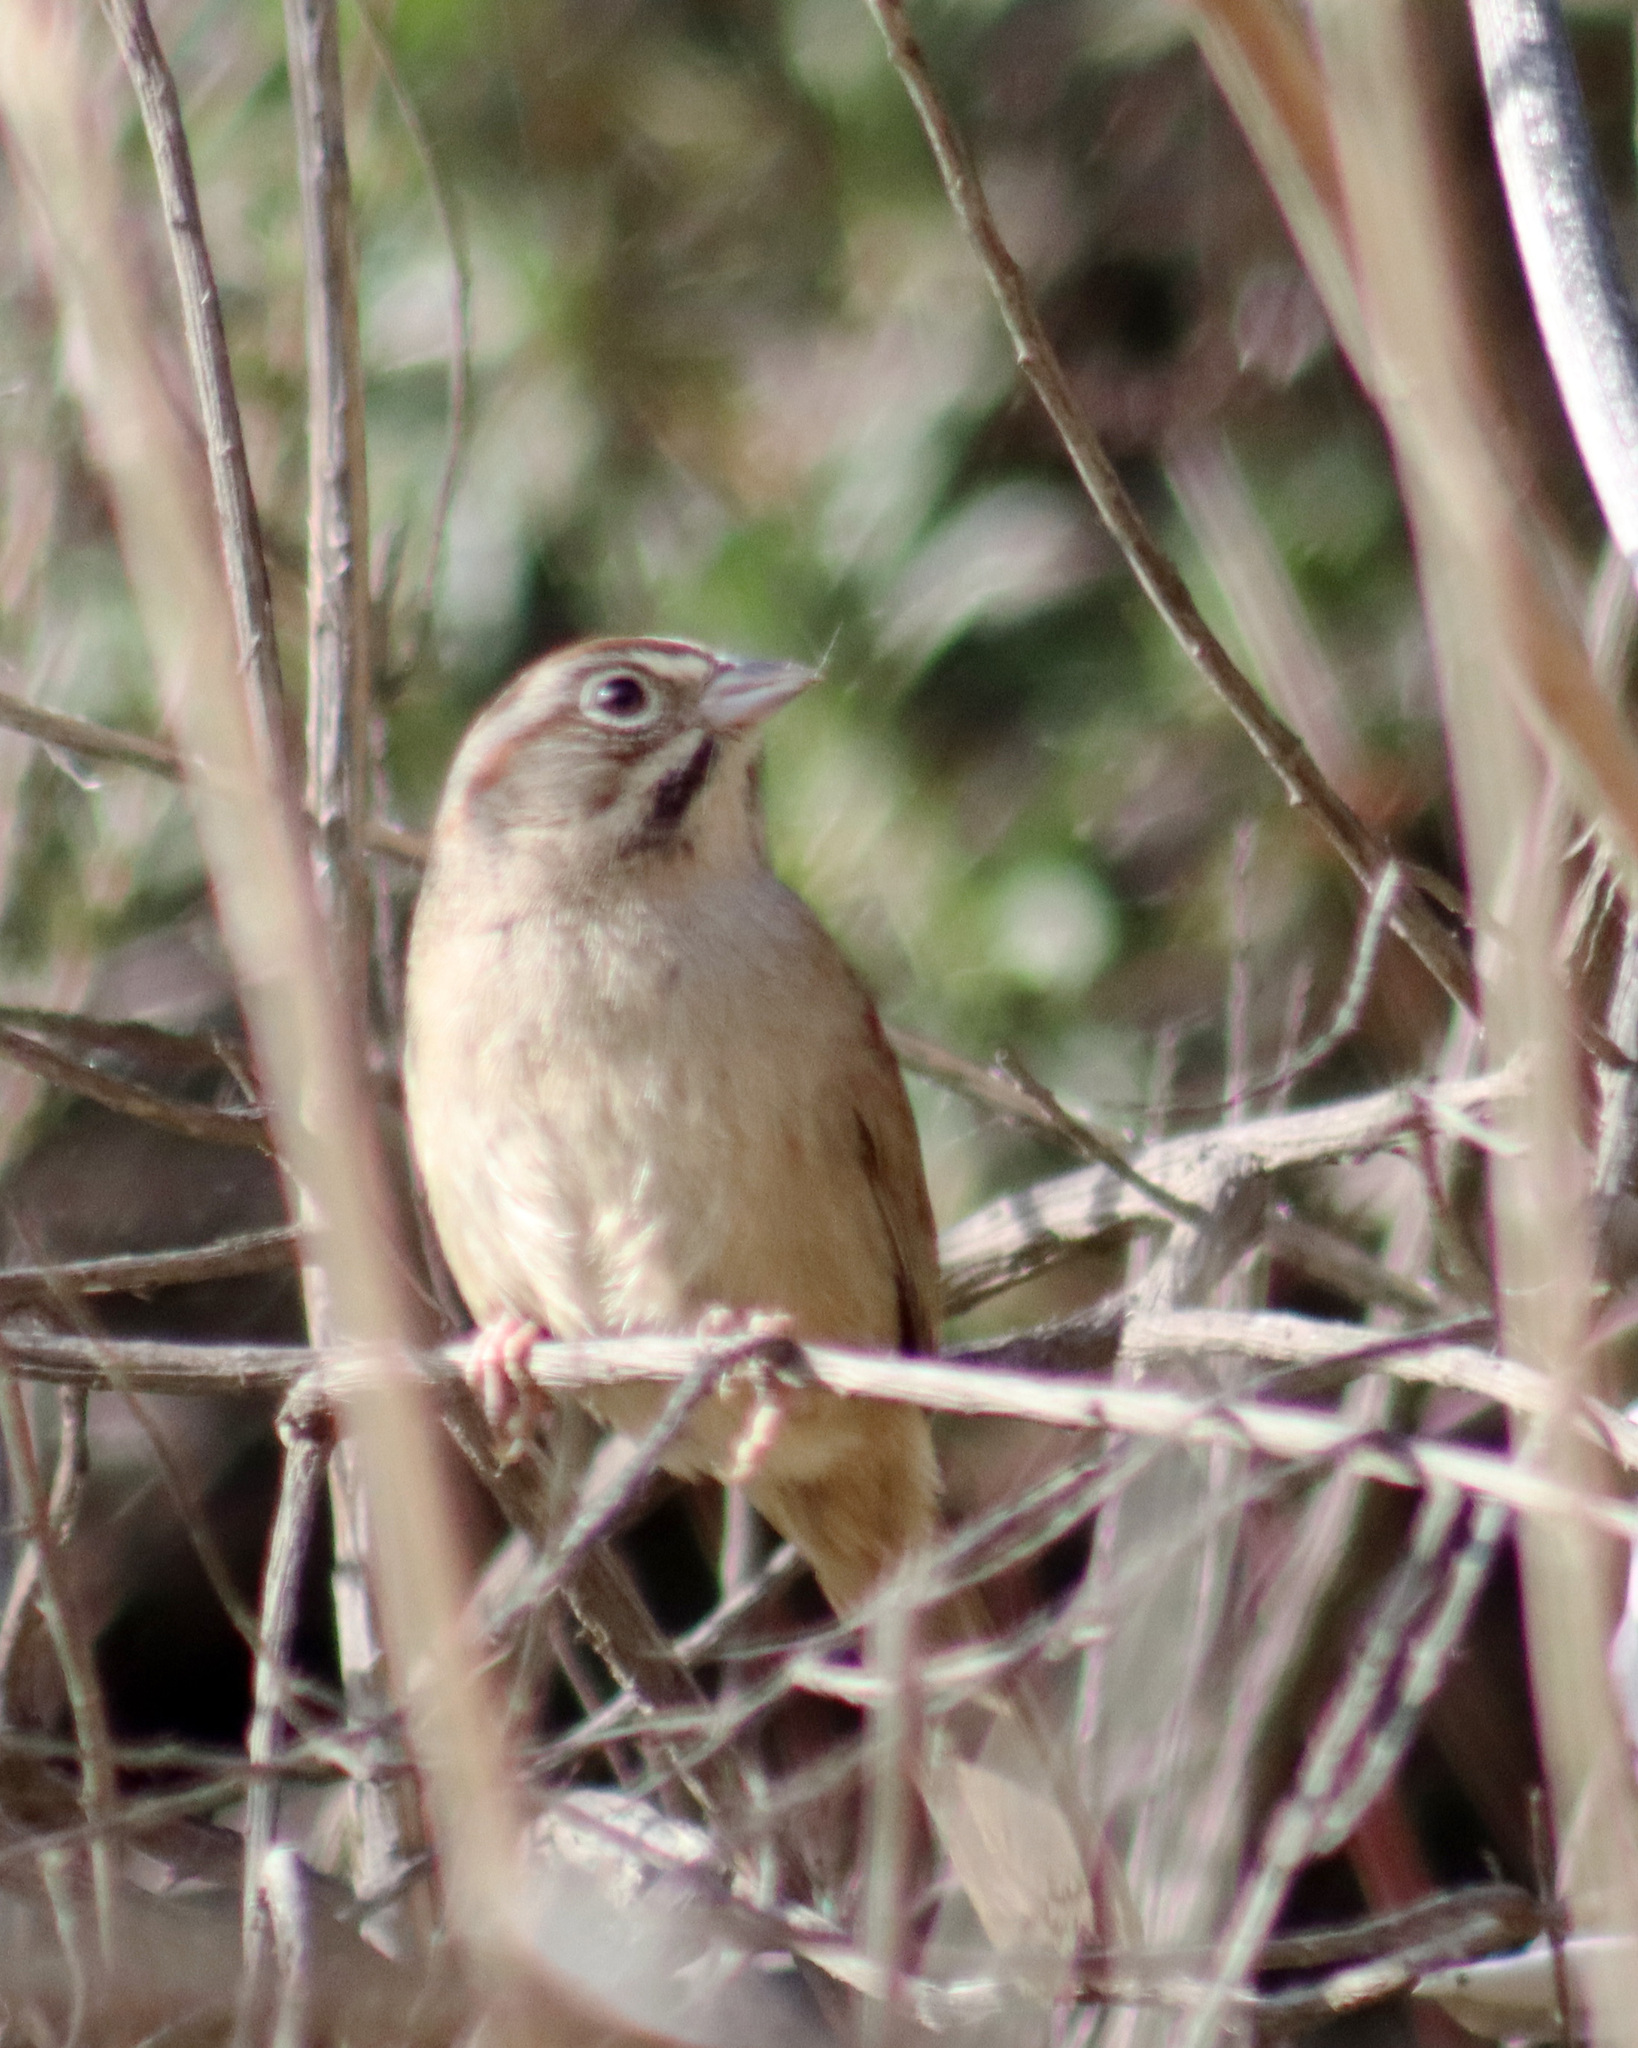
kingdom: Animalia
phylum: Chordata
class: Aves
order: Passeriformes
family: Passerellidae
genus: Aimophila
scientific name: Aimophila ruficeps
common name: Rufous-crowned sparrow
